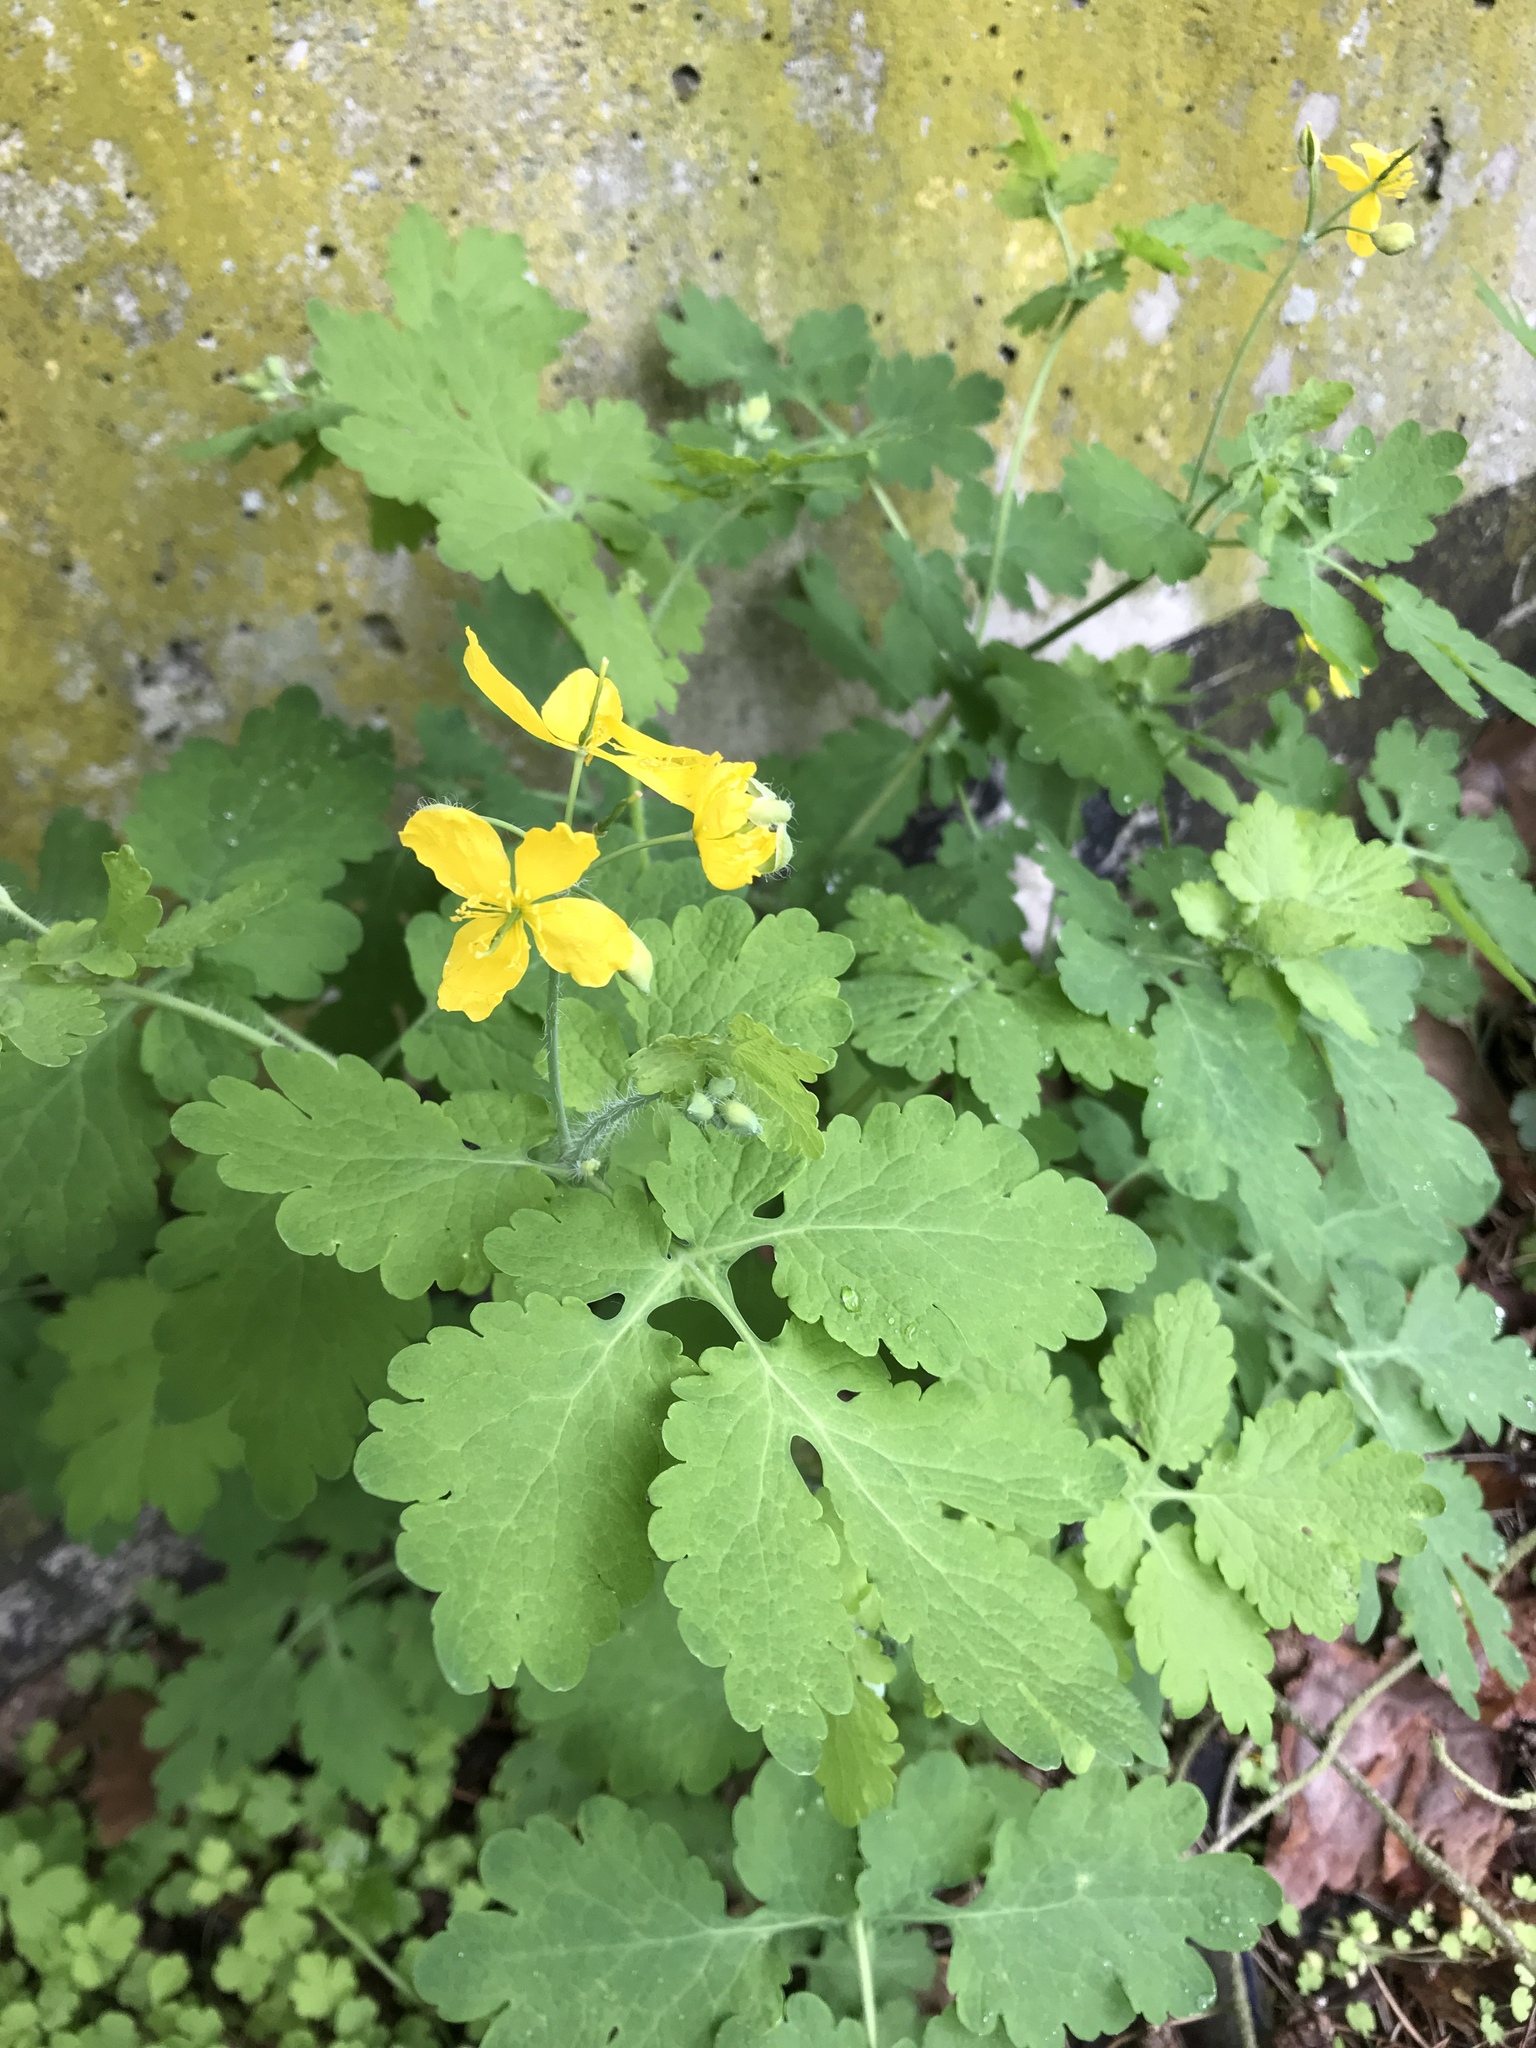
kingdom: Plantae
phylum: Tracheophyta
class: Magnoliopsida
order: Ranunculales
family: Papaveraceae
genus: Chelidonium
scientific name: Chelidonium majus
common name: Greater celandine
